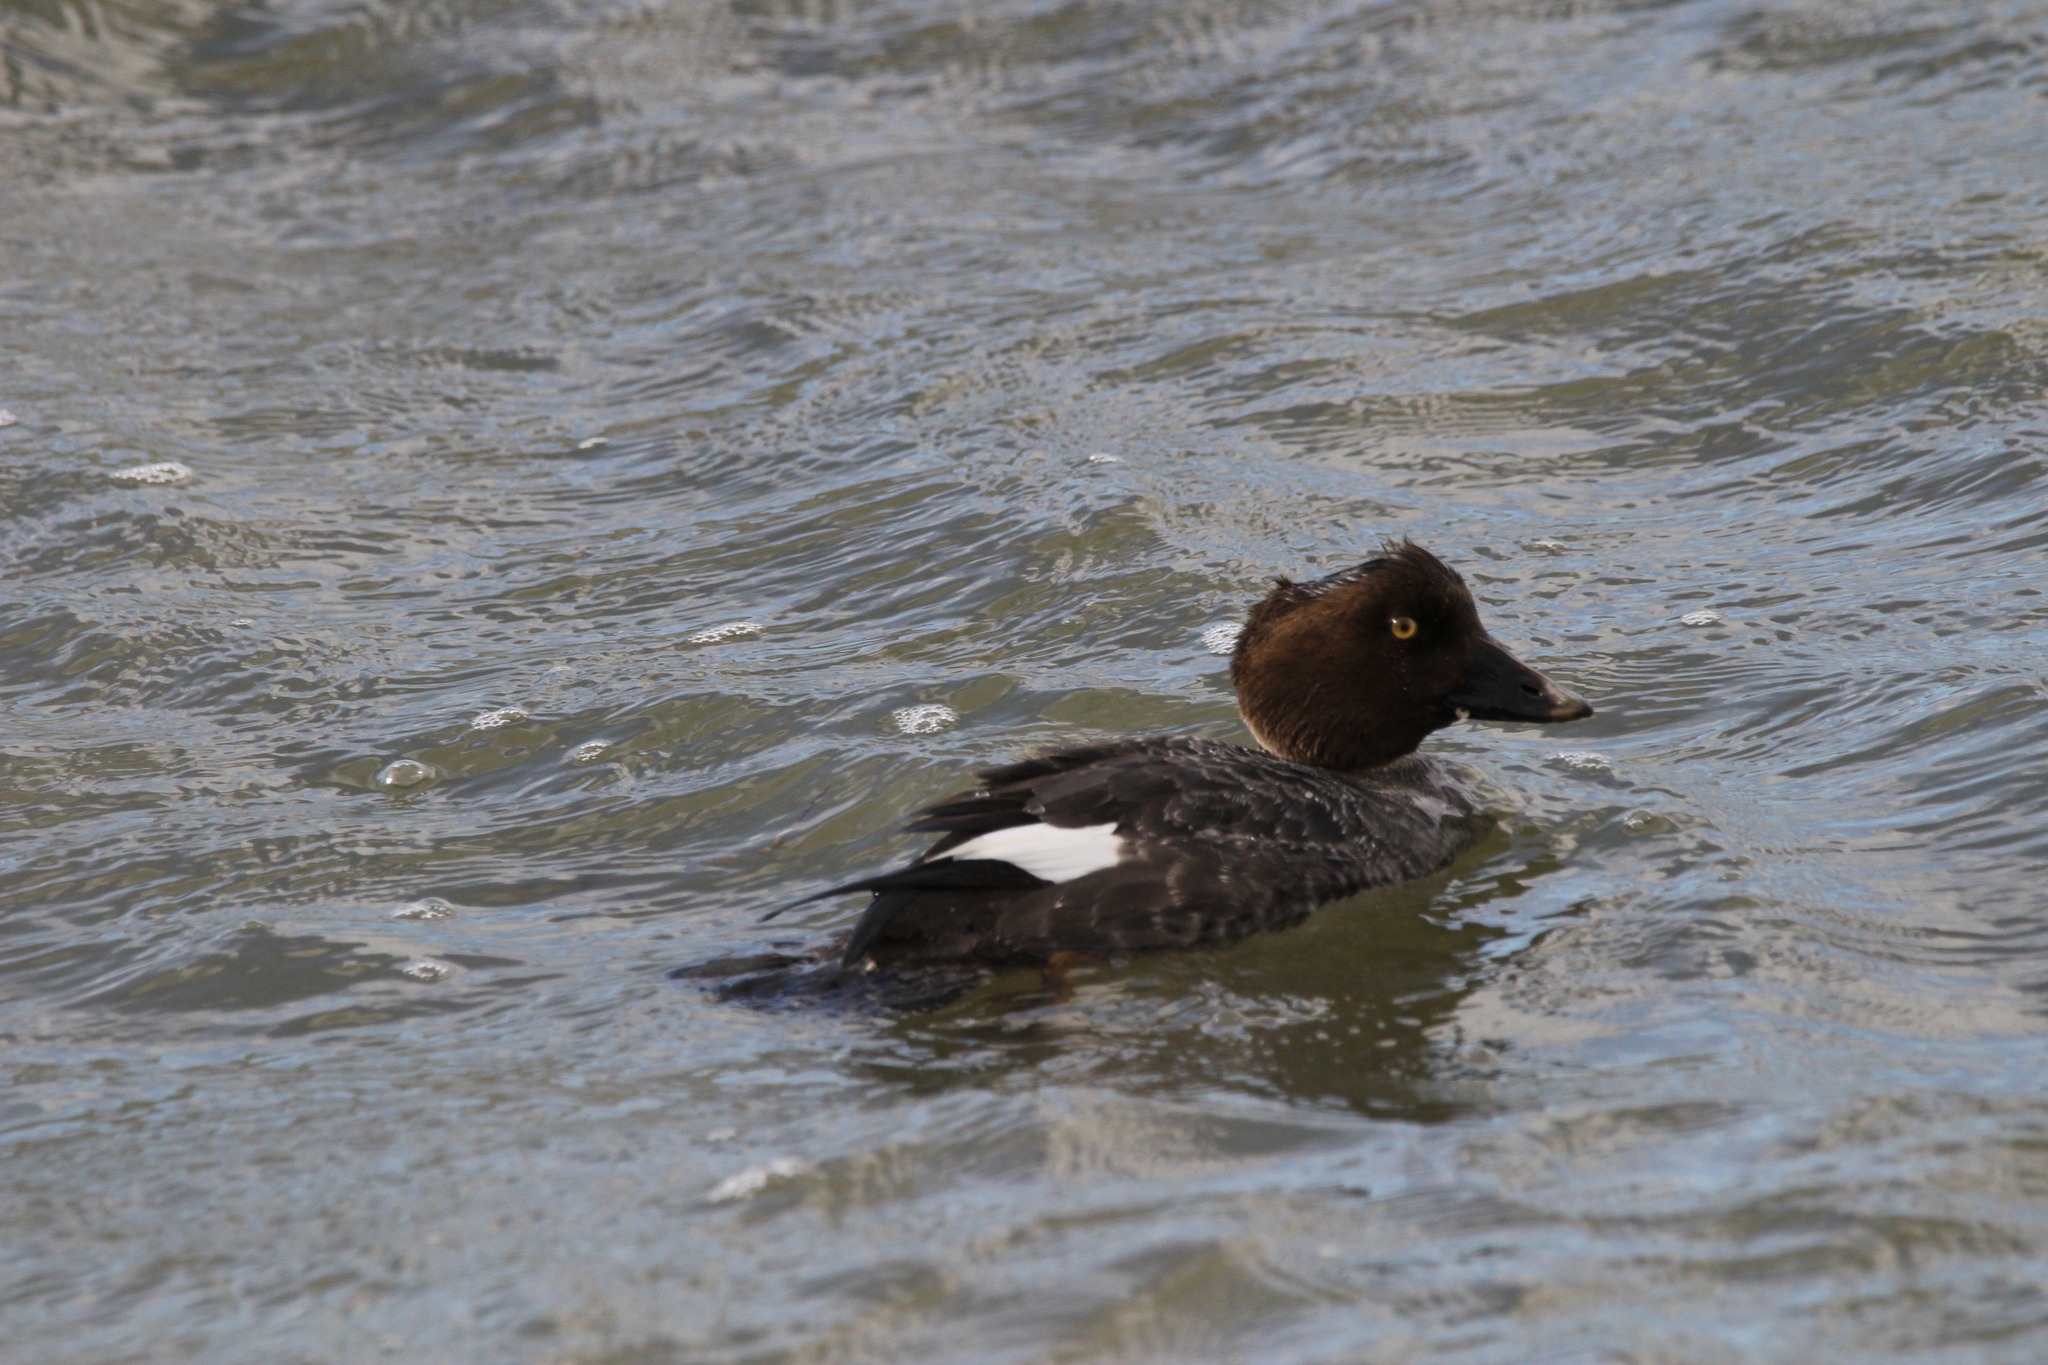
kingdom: Animalia
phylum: Chordata
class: Aves
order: Anseriformes
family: Anatidae
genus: Bucephala
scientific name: Bucephala clangula
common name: Common goldeneye
